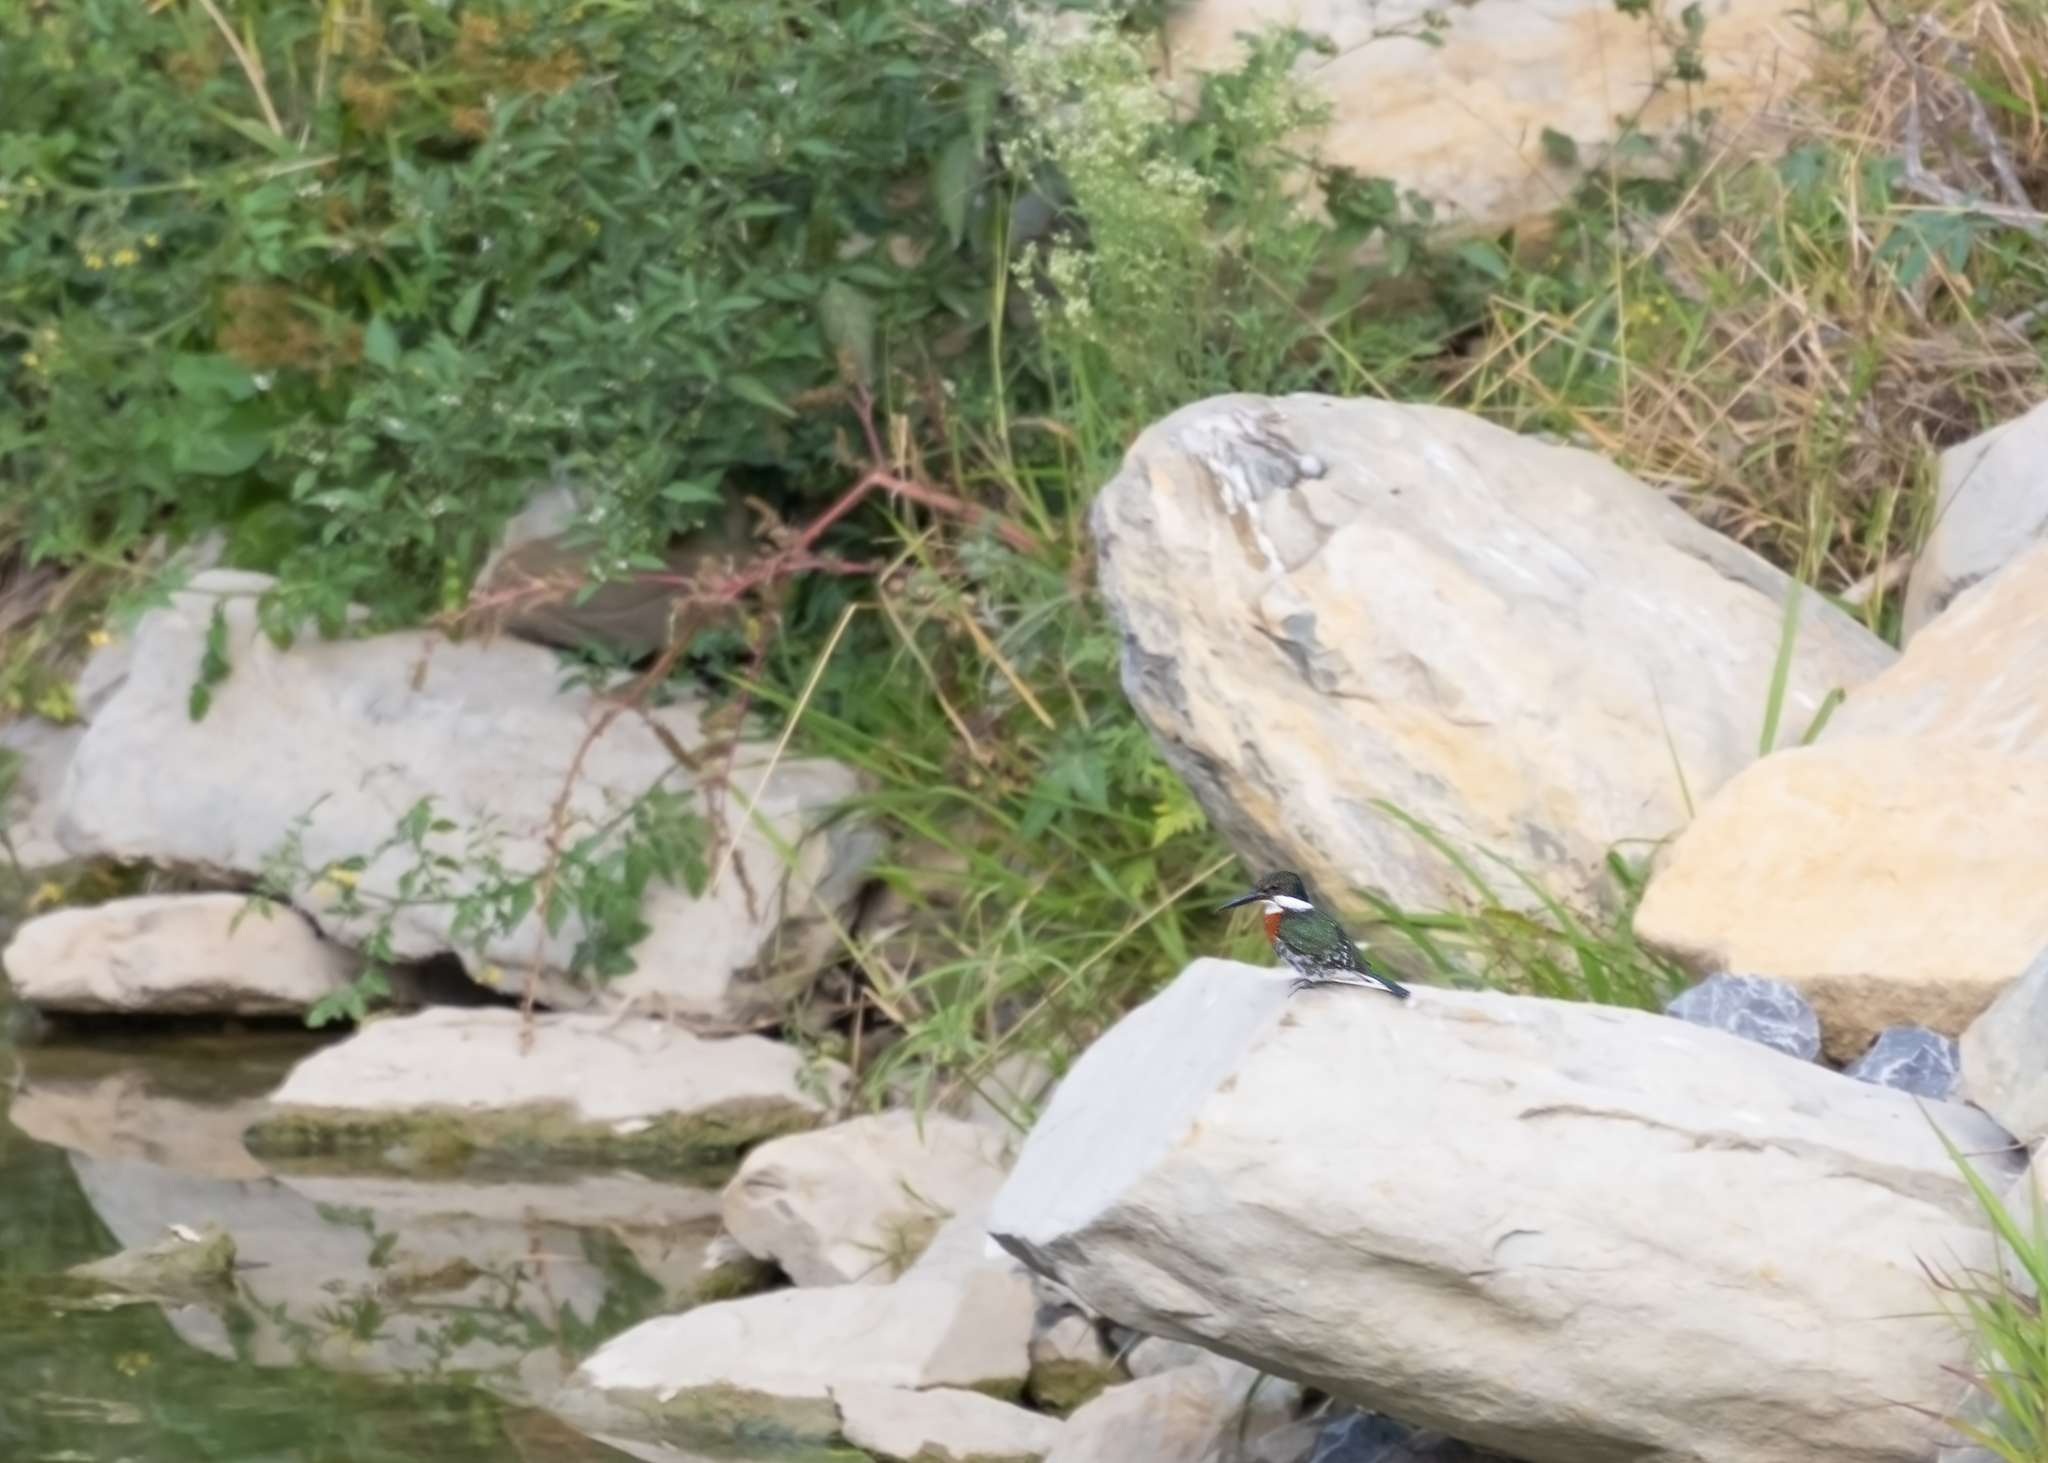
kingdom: Animalia
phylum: Chordata
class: Aves
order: Coraciiformes
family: Alcedinidae
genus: Chloroceryle
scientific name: Chloroceryle americana
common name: Green kingfisher
